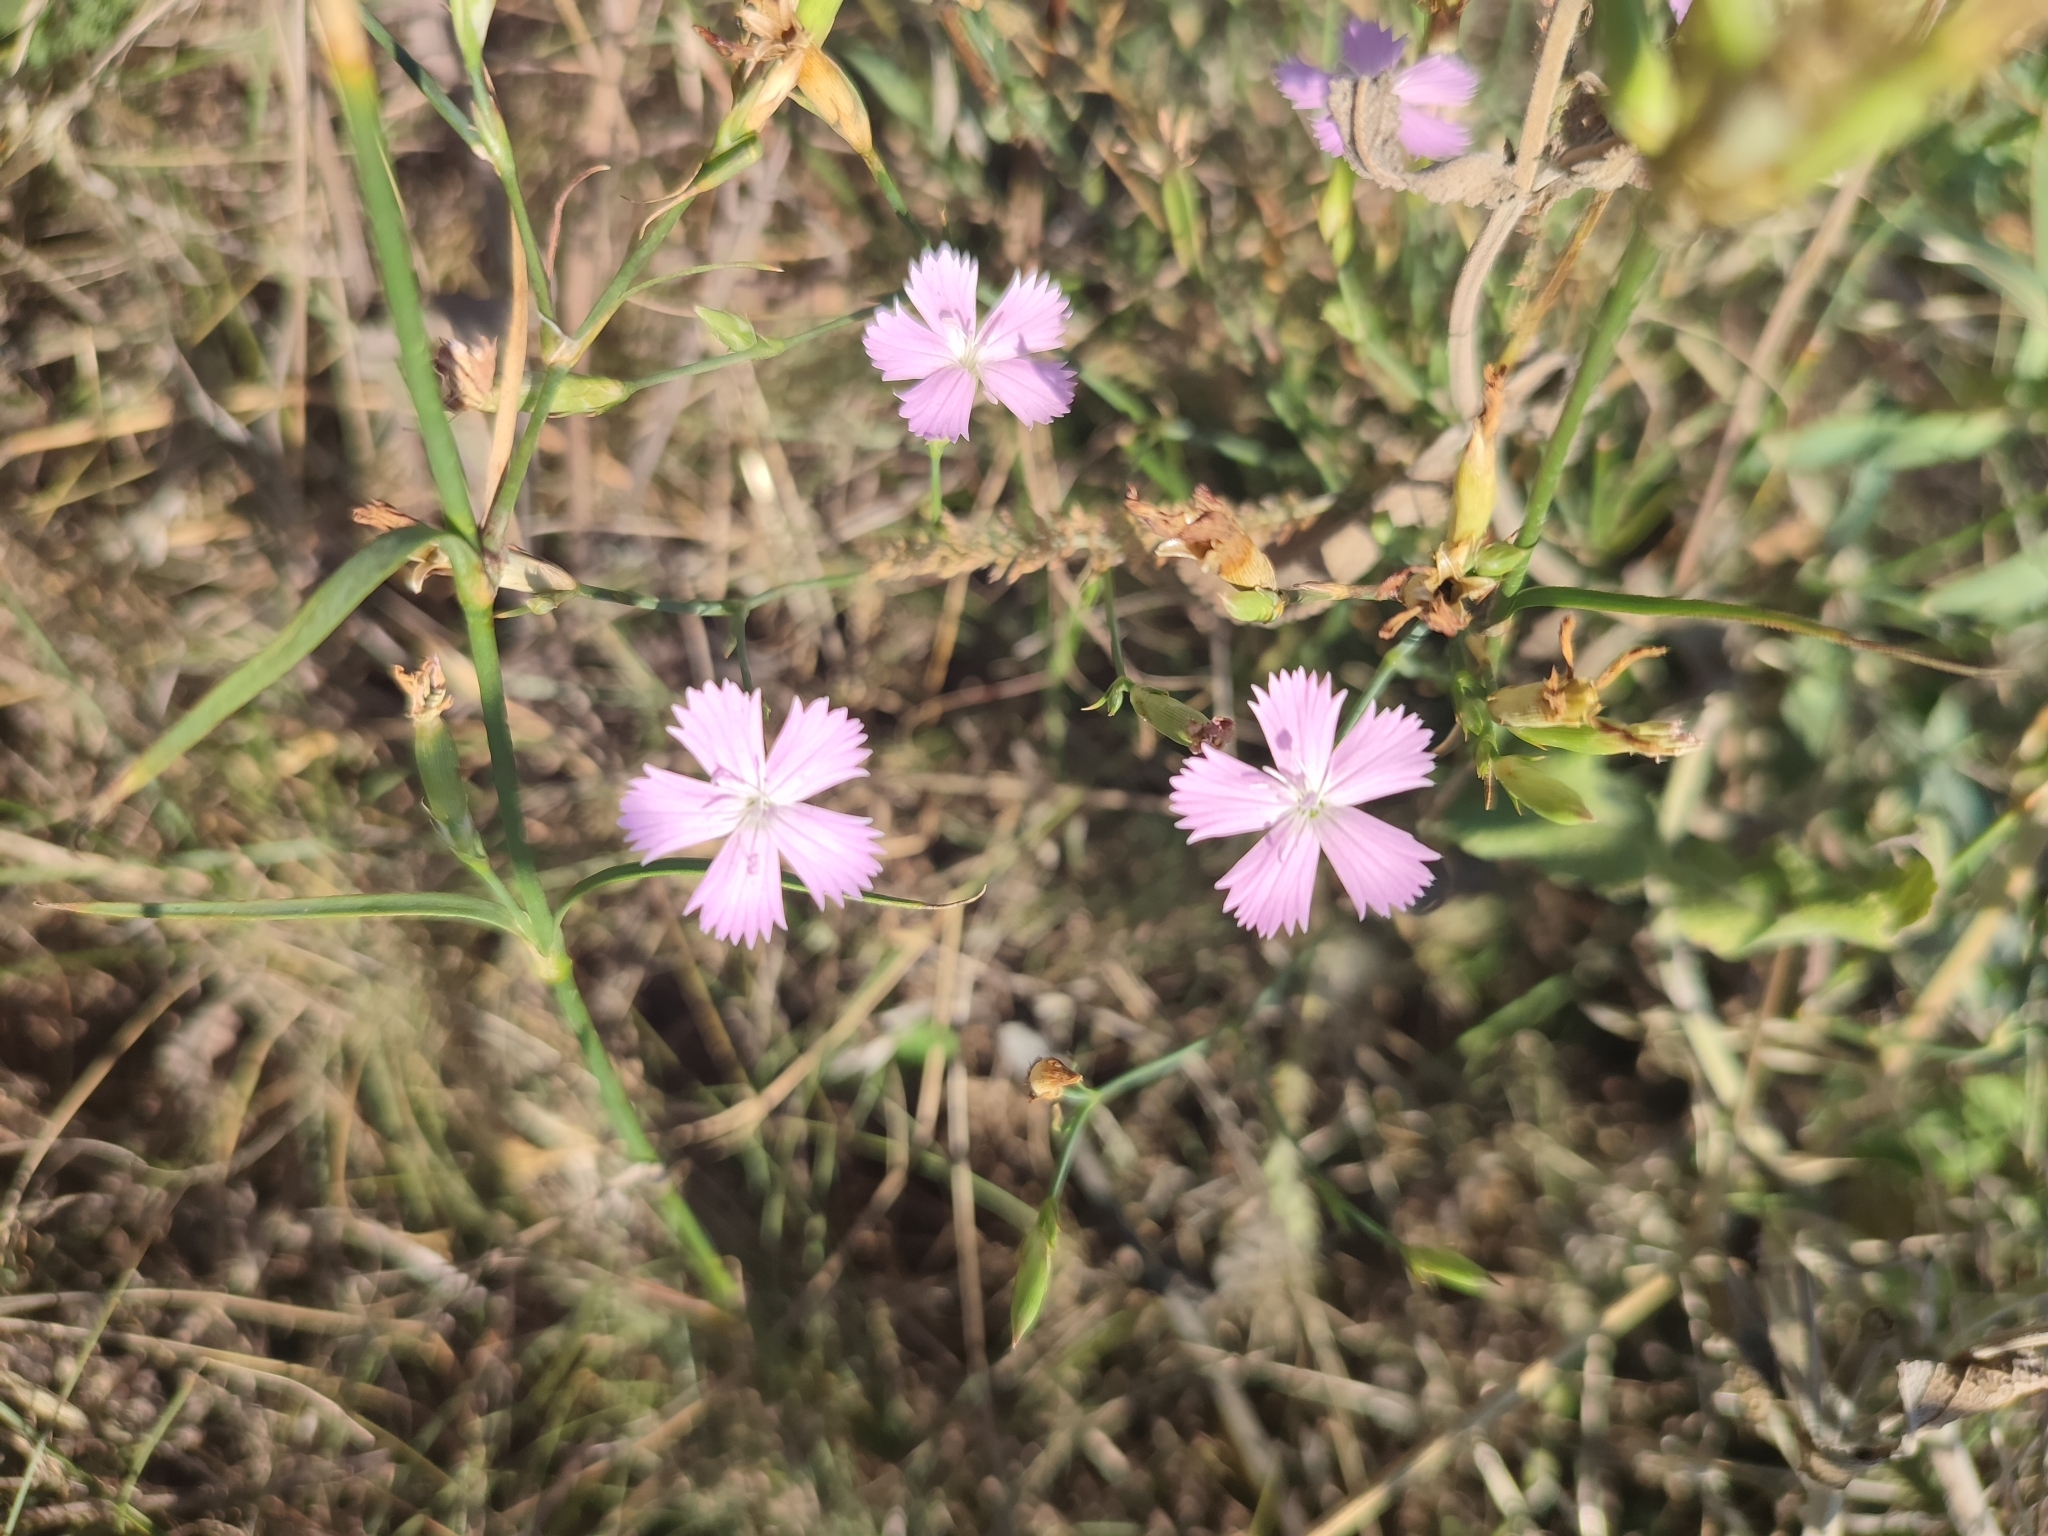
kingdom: Plantae
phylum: Tracheophyta
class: Magnoliopsida
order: Caryophyllales
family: Caryophyllaceae
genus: Dianthus
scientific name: Dianthus pallens
